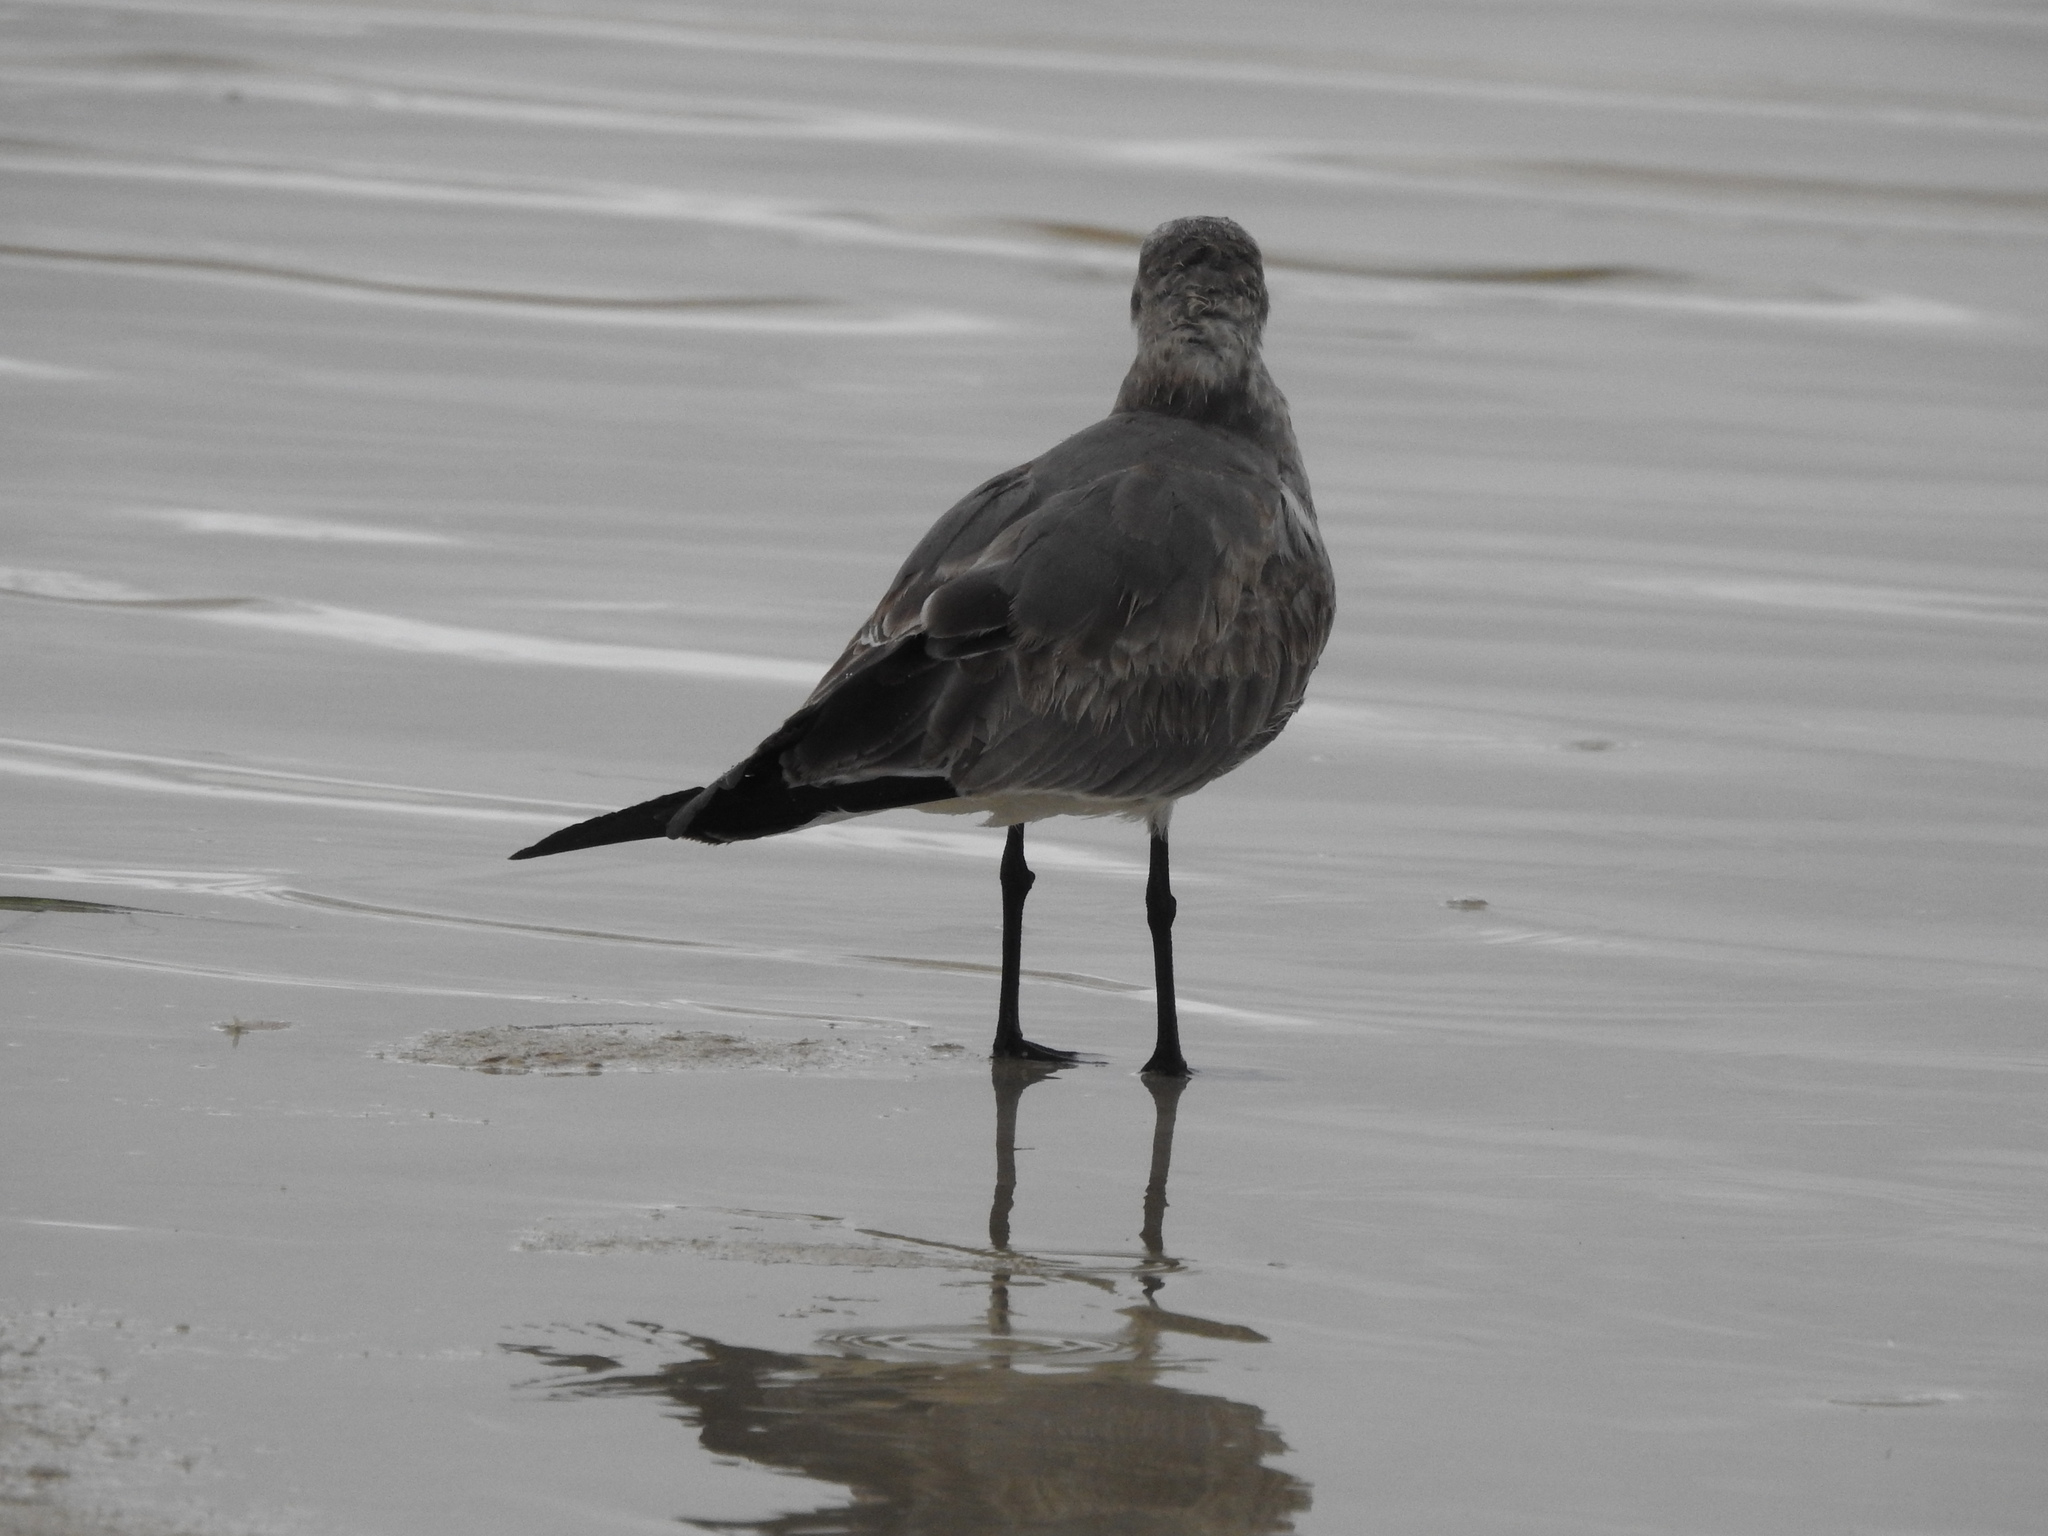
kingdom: Animalia
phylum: Chordata
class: Aves
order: Charadriiformes
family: Laridae
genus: Leucophaeus
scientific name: Leucophaeus atricilla
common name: Laughing gull
